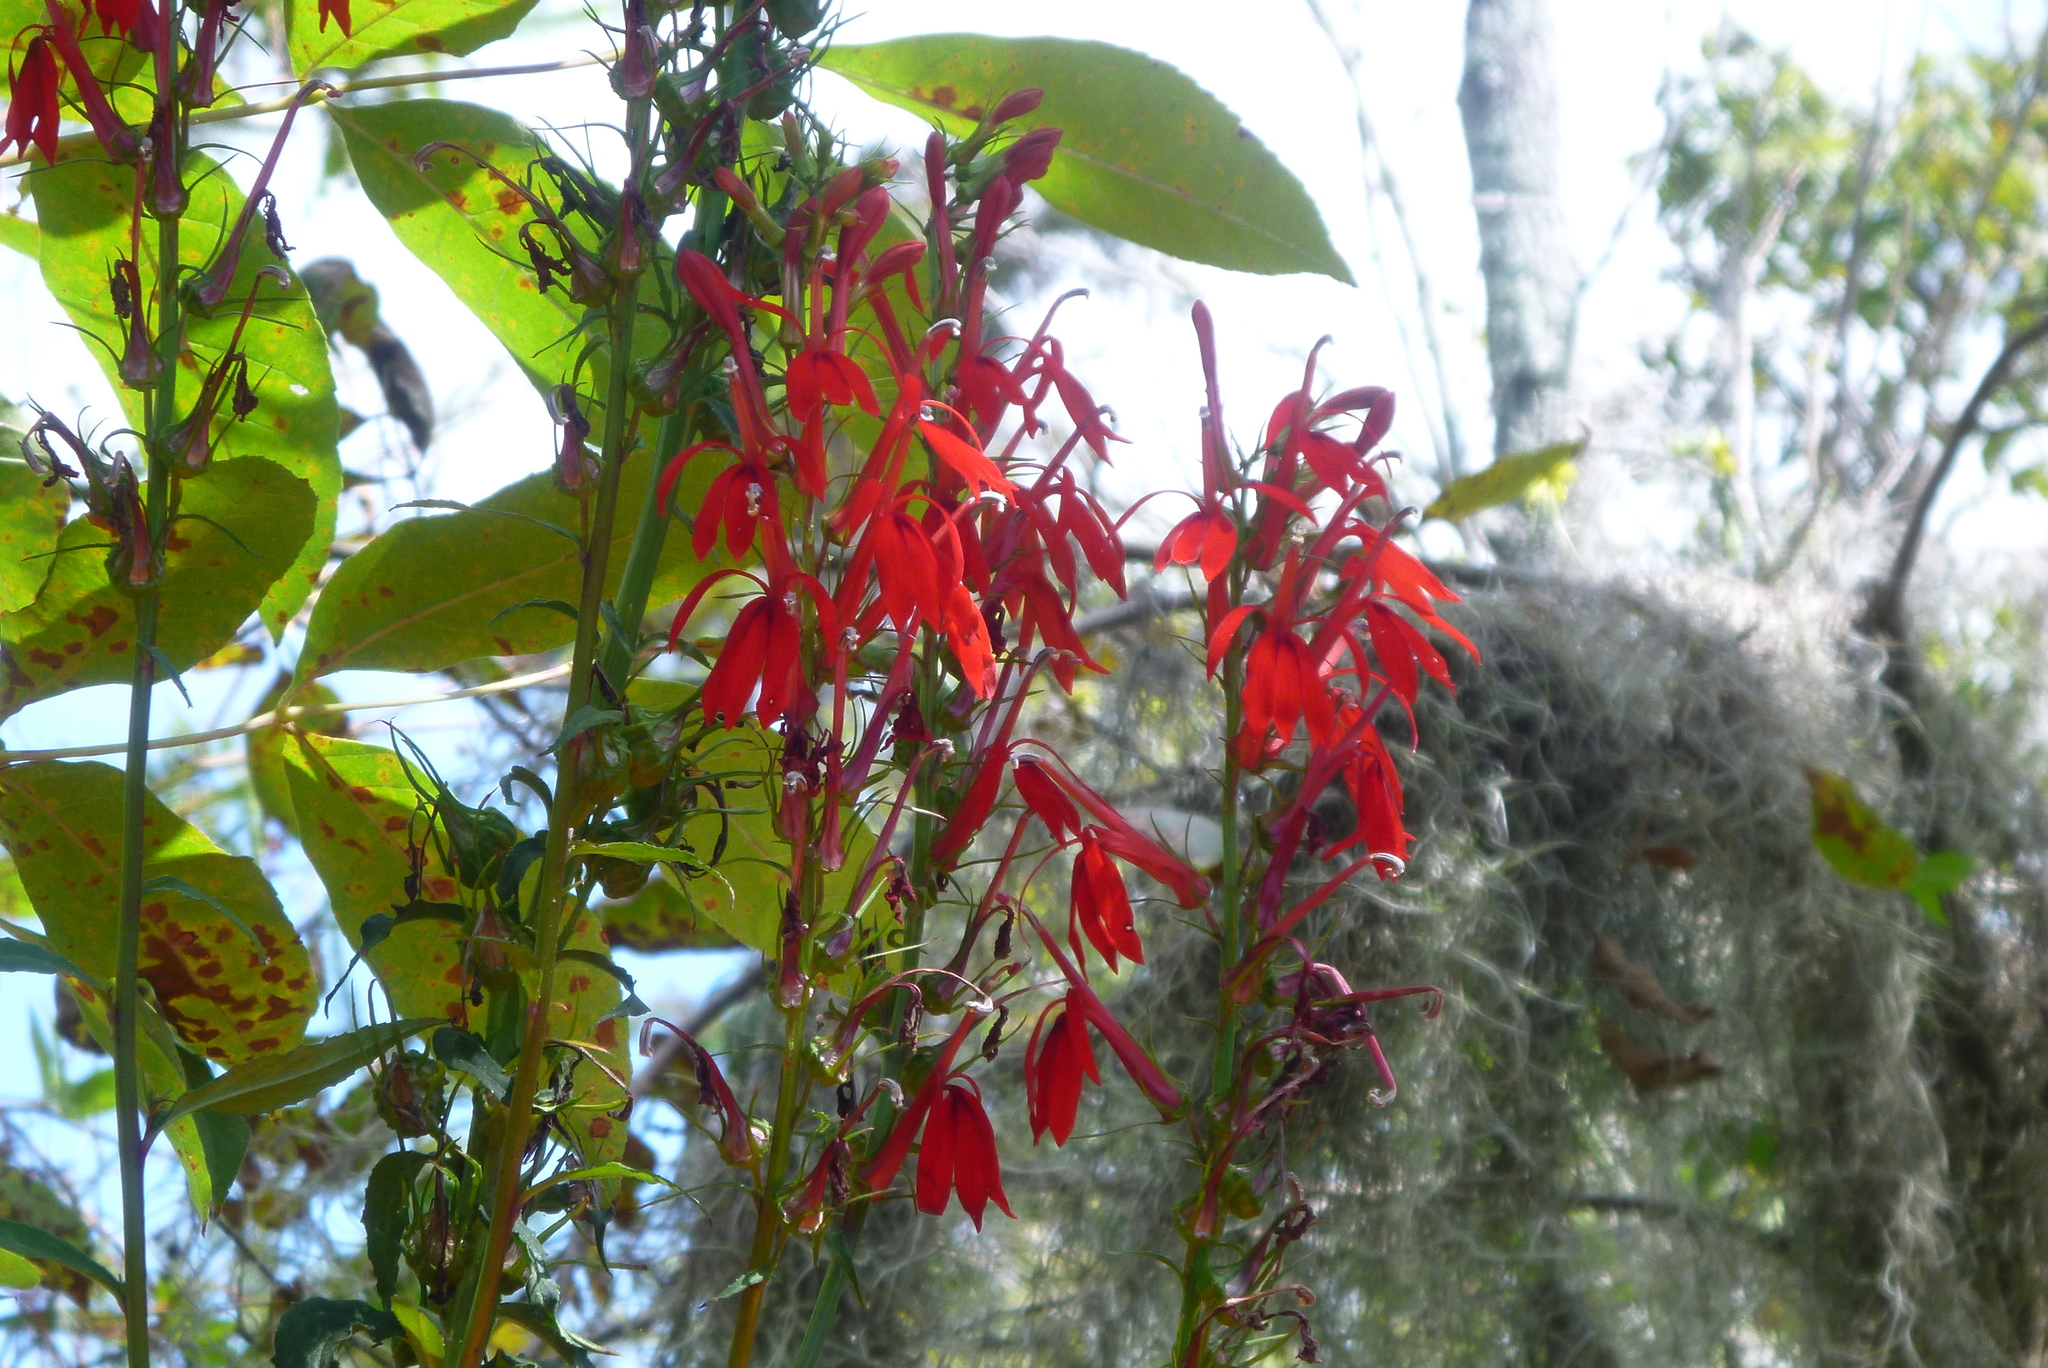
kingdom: Plantae
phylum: Tracheophyta
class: Magnoliopsida
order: Asterales
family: Campanulaceae
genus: Lobelia
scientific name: Lobelia cardinalis
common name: Cardinal flower
